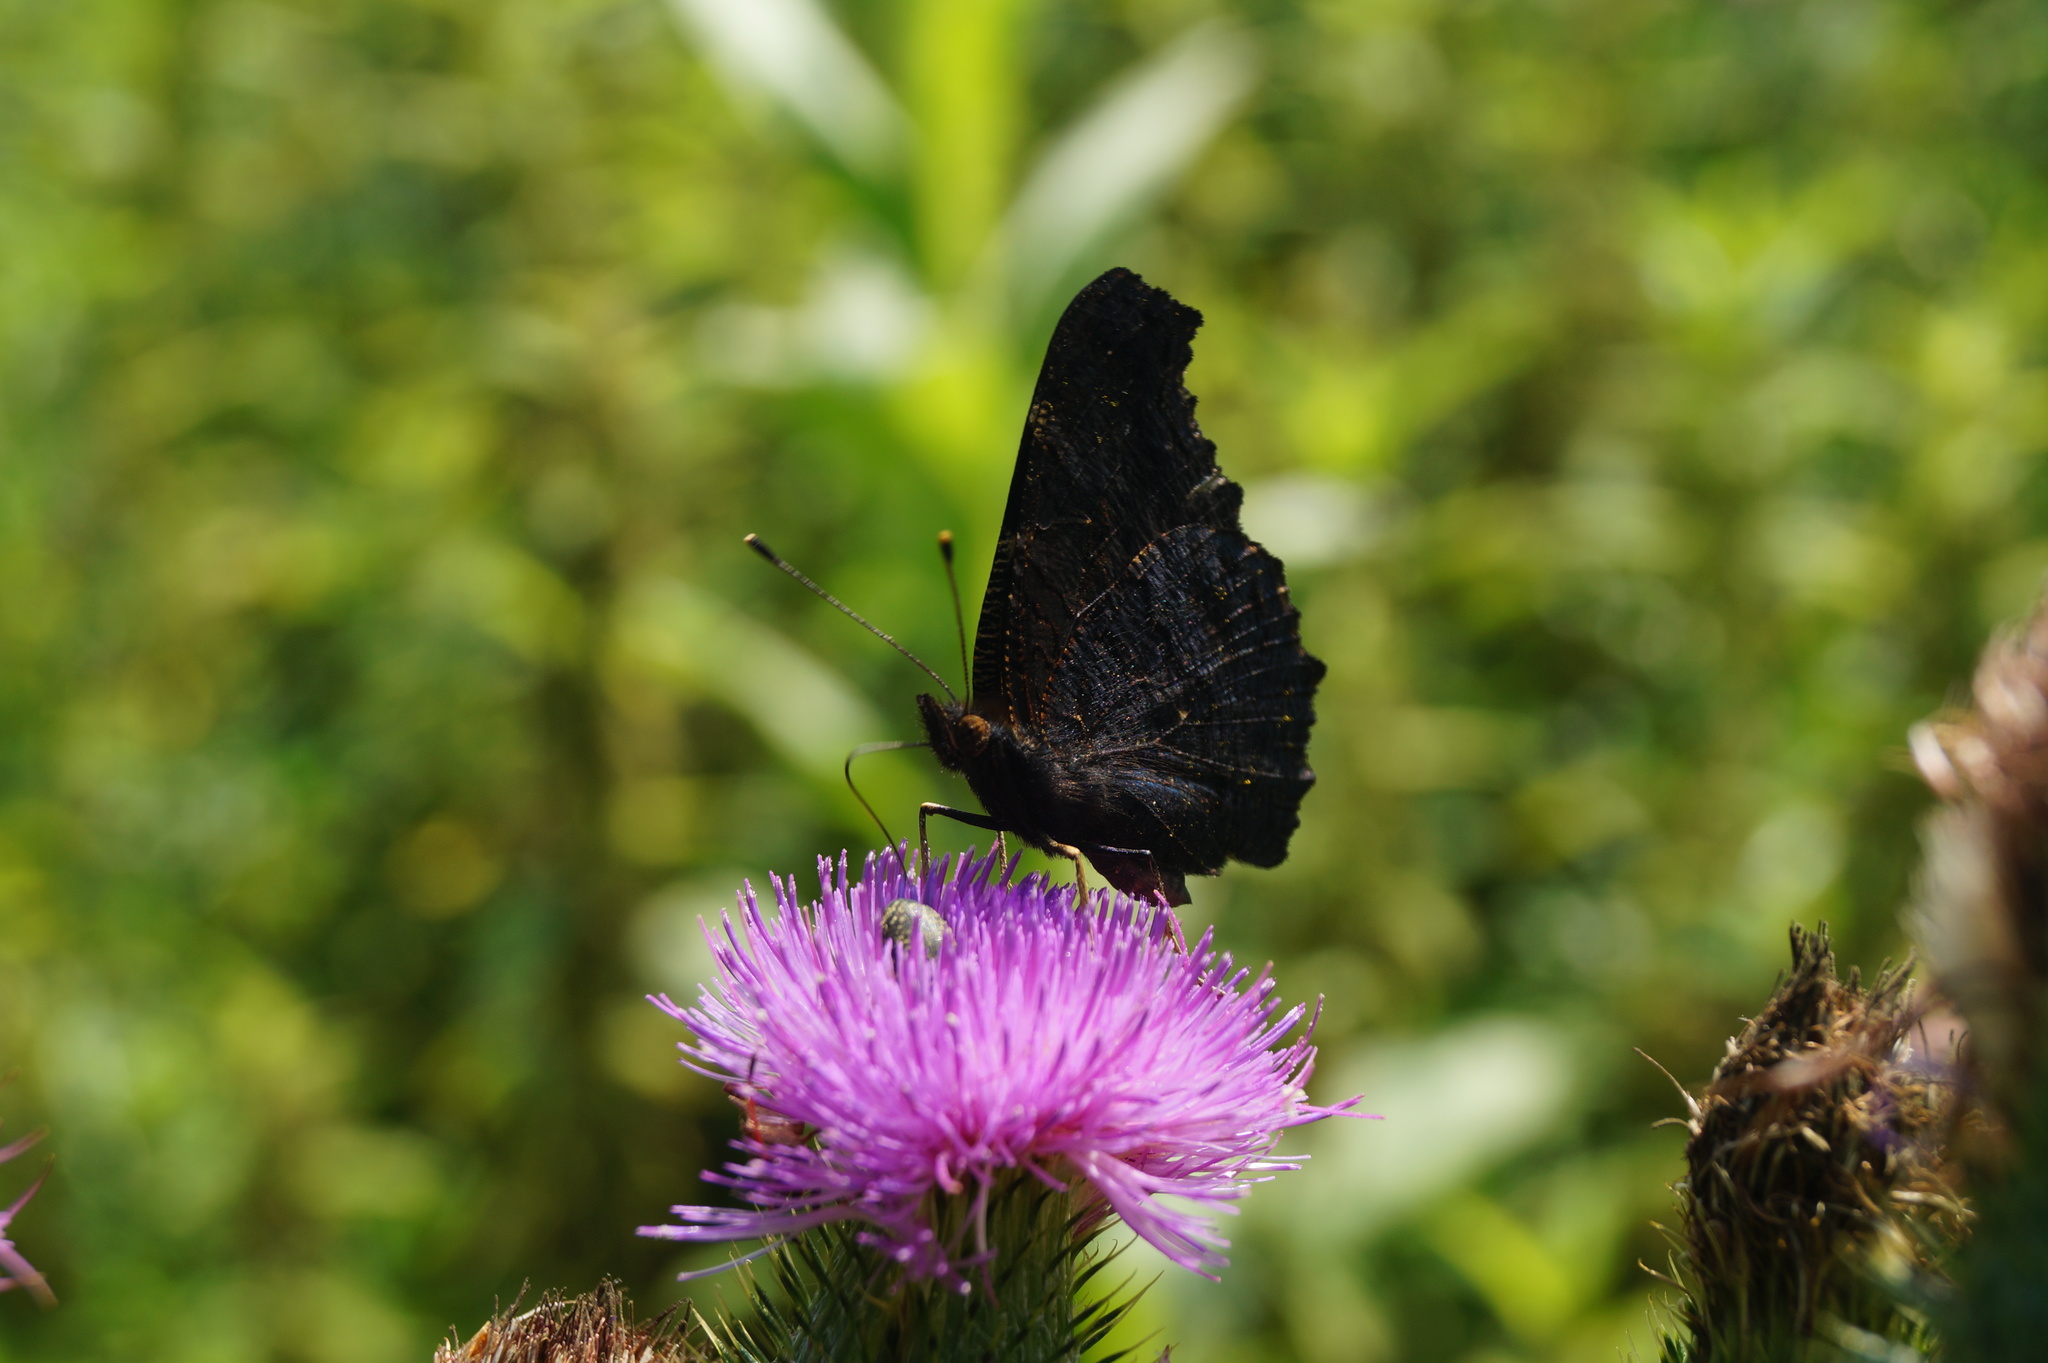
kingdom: Animalia
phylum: Arthropoda
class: Insecta
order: Lepidoptera
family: Nymphalidae
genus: Aglais
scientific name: Aglais io
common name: Peacock
